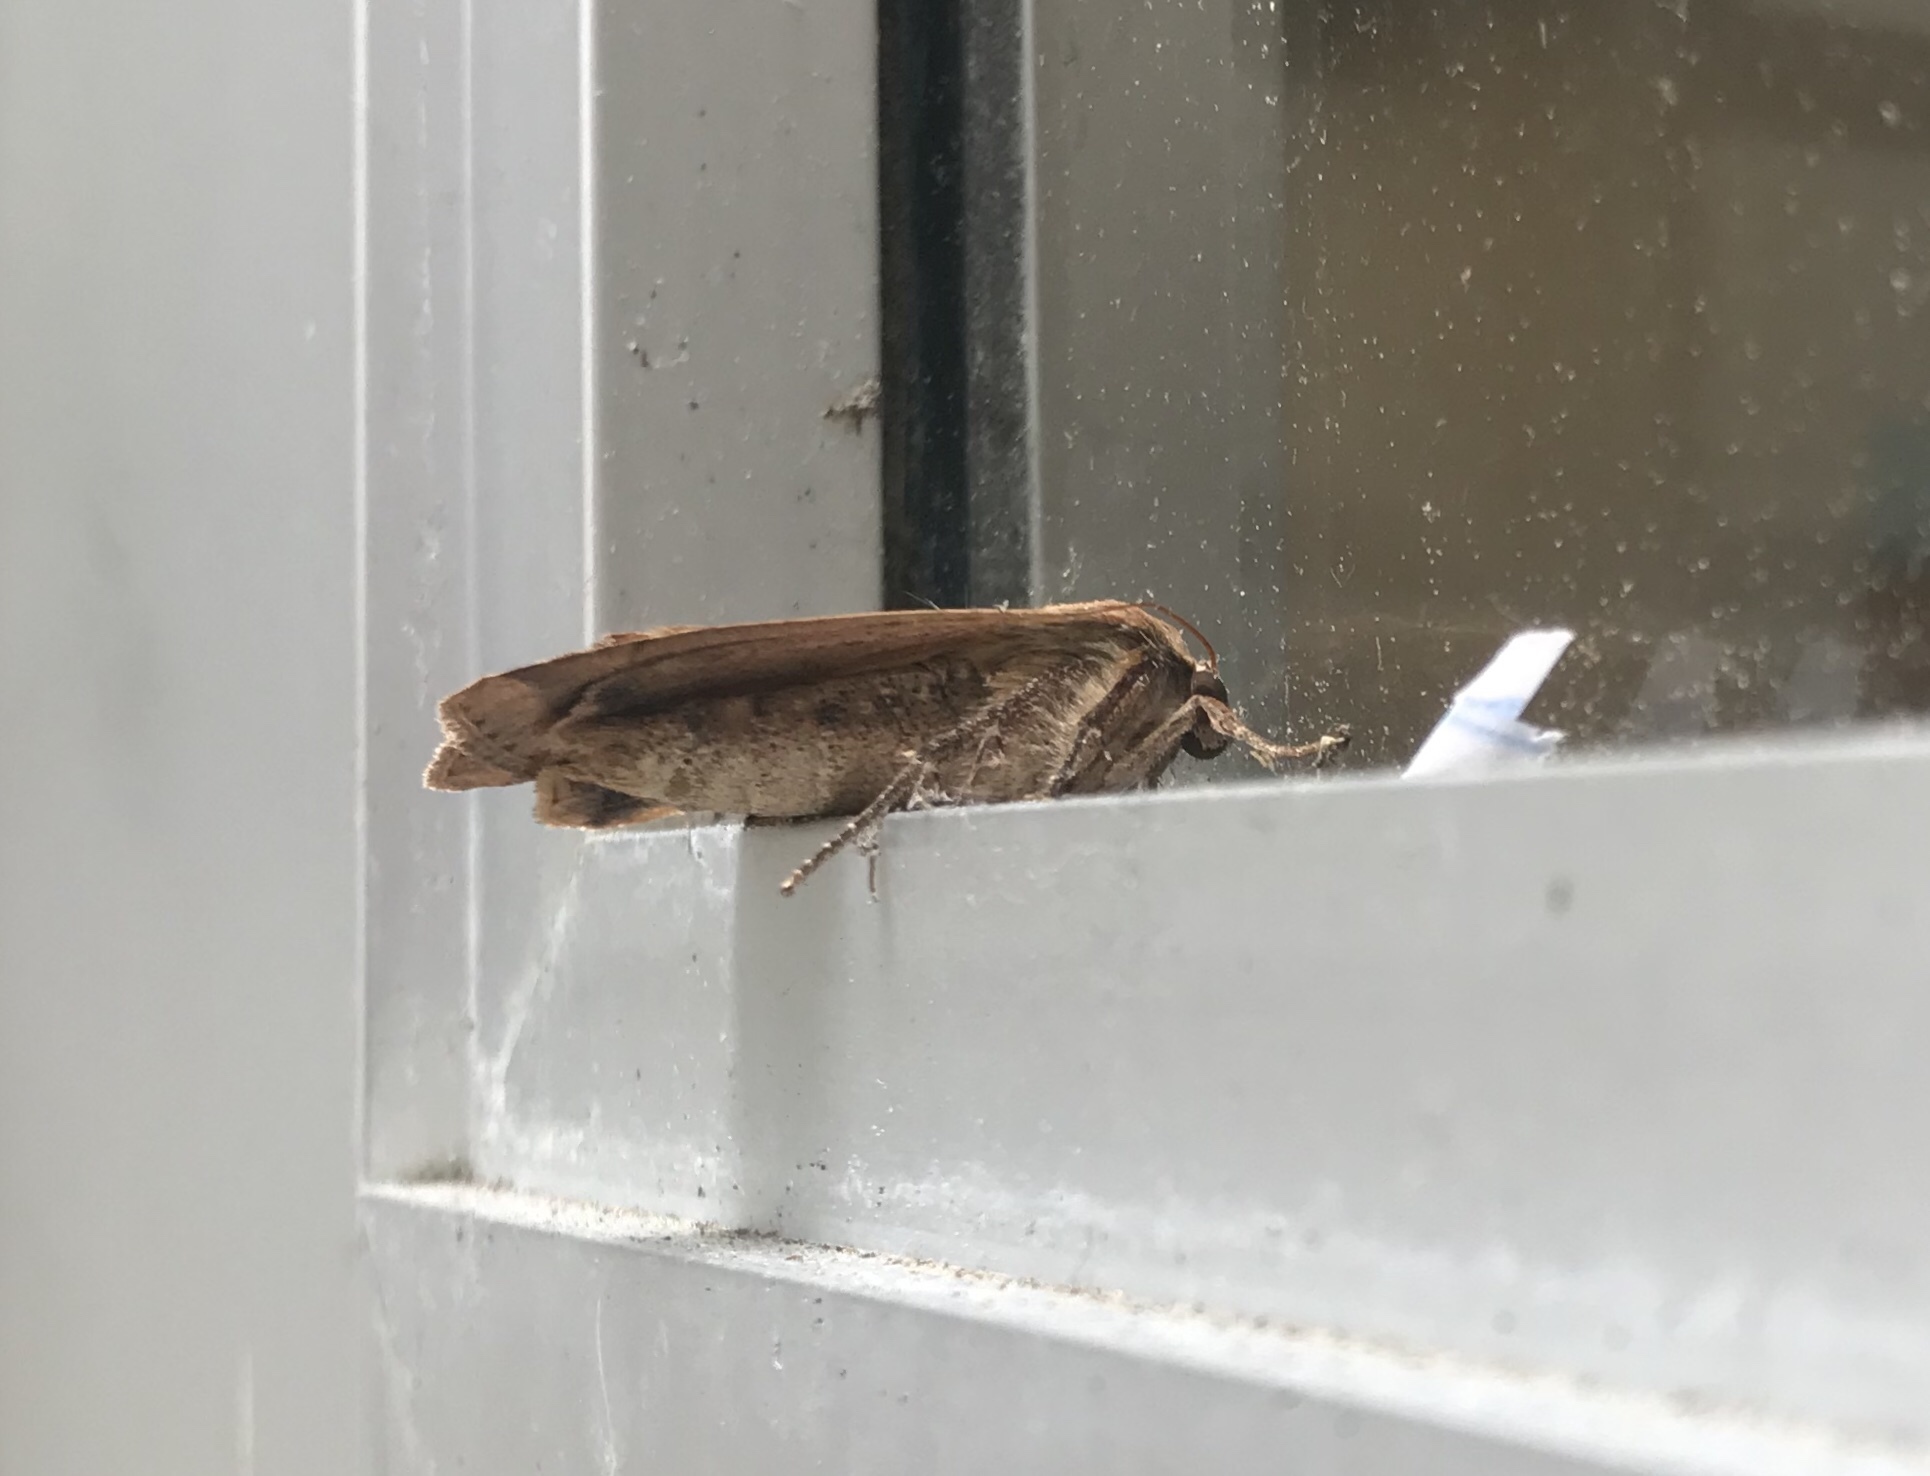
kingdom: Animalia
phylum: Arthropoda
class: Insecta
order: Lepidoptera
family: Noctuidae
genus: Noctua
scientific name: Noctua pronuba
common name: Large yellow underwing
